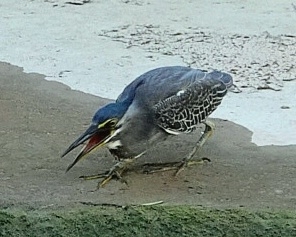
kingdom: Animalia
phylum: Chordata
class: Aves
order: Pelecaniformes
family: Ardeidae
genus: Butorides
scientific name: Butorides striata
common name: Striated heron
